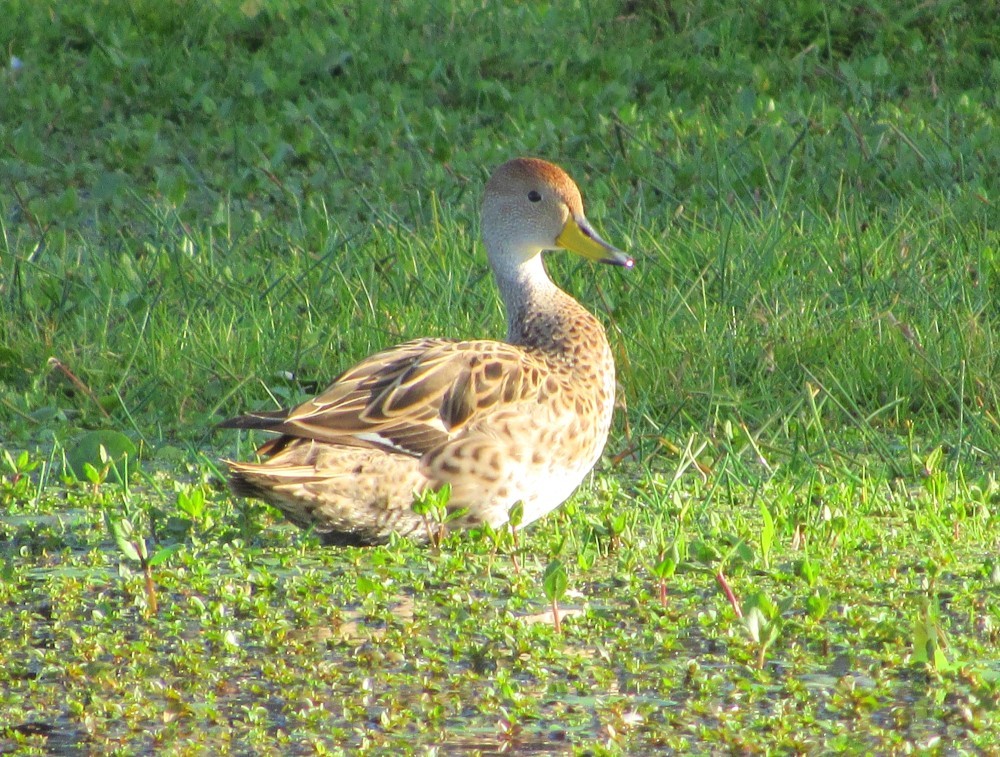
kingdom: Animalia
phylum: Chordata
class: Aves
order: Anseriformes
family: Anatidae
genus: Anas
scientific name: Anas georgica
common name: Yellow-billed pintail
